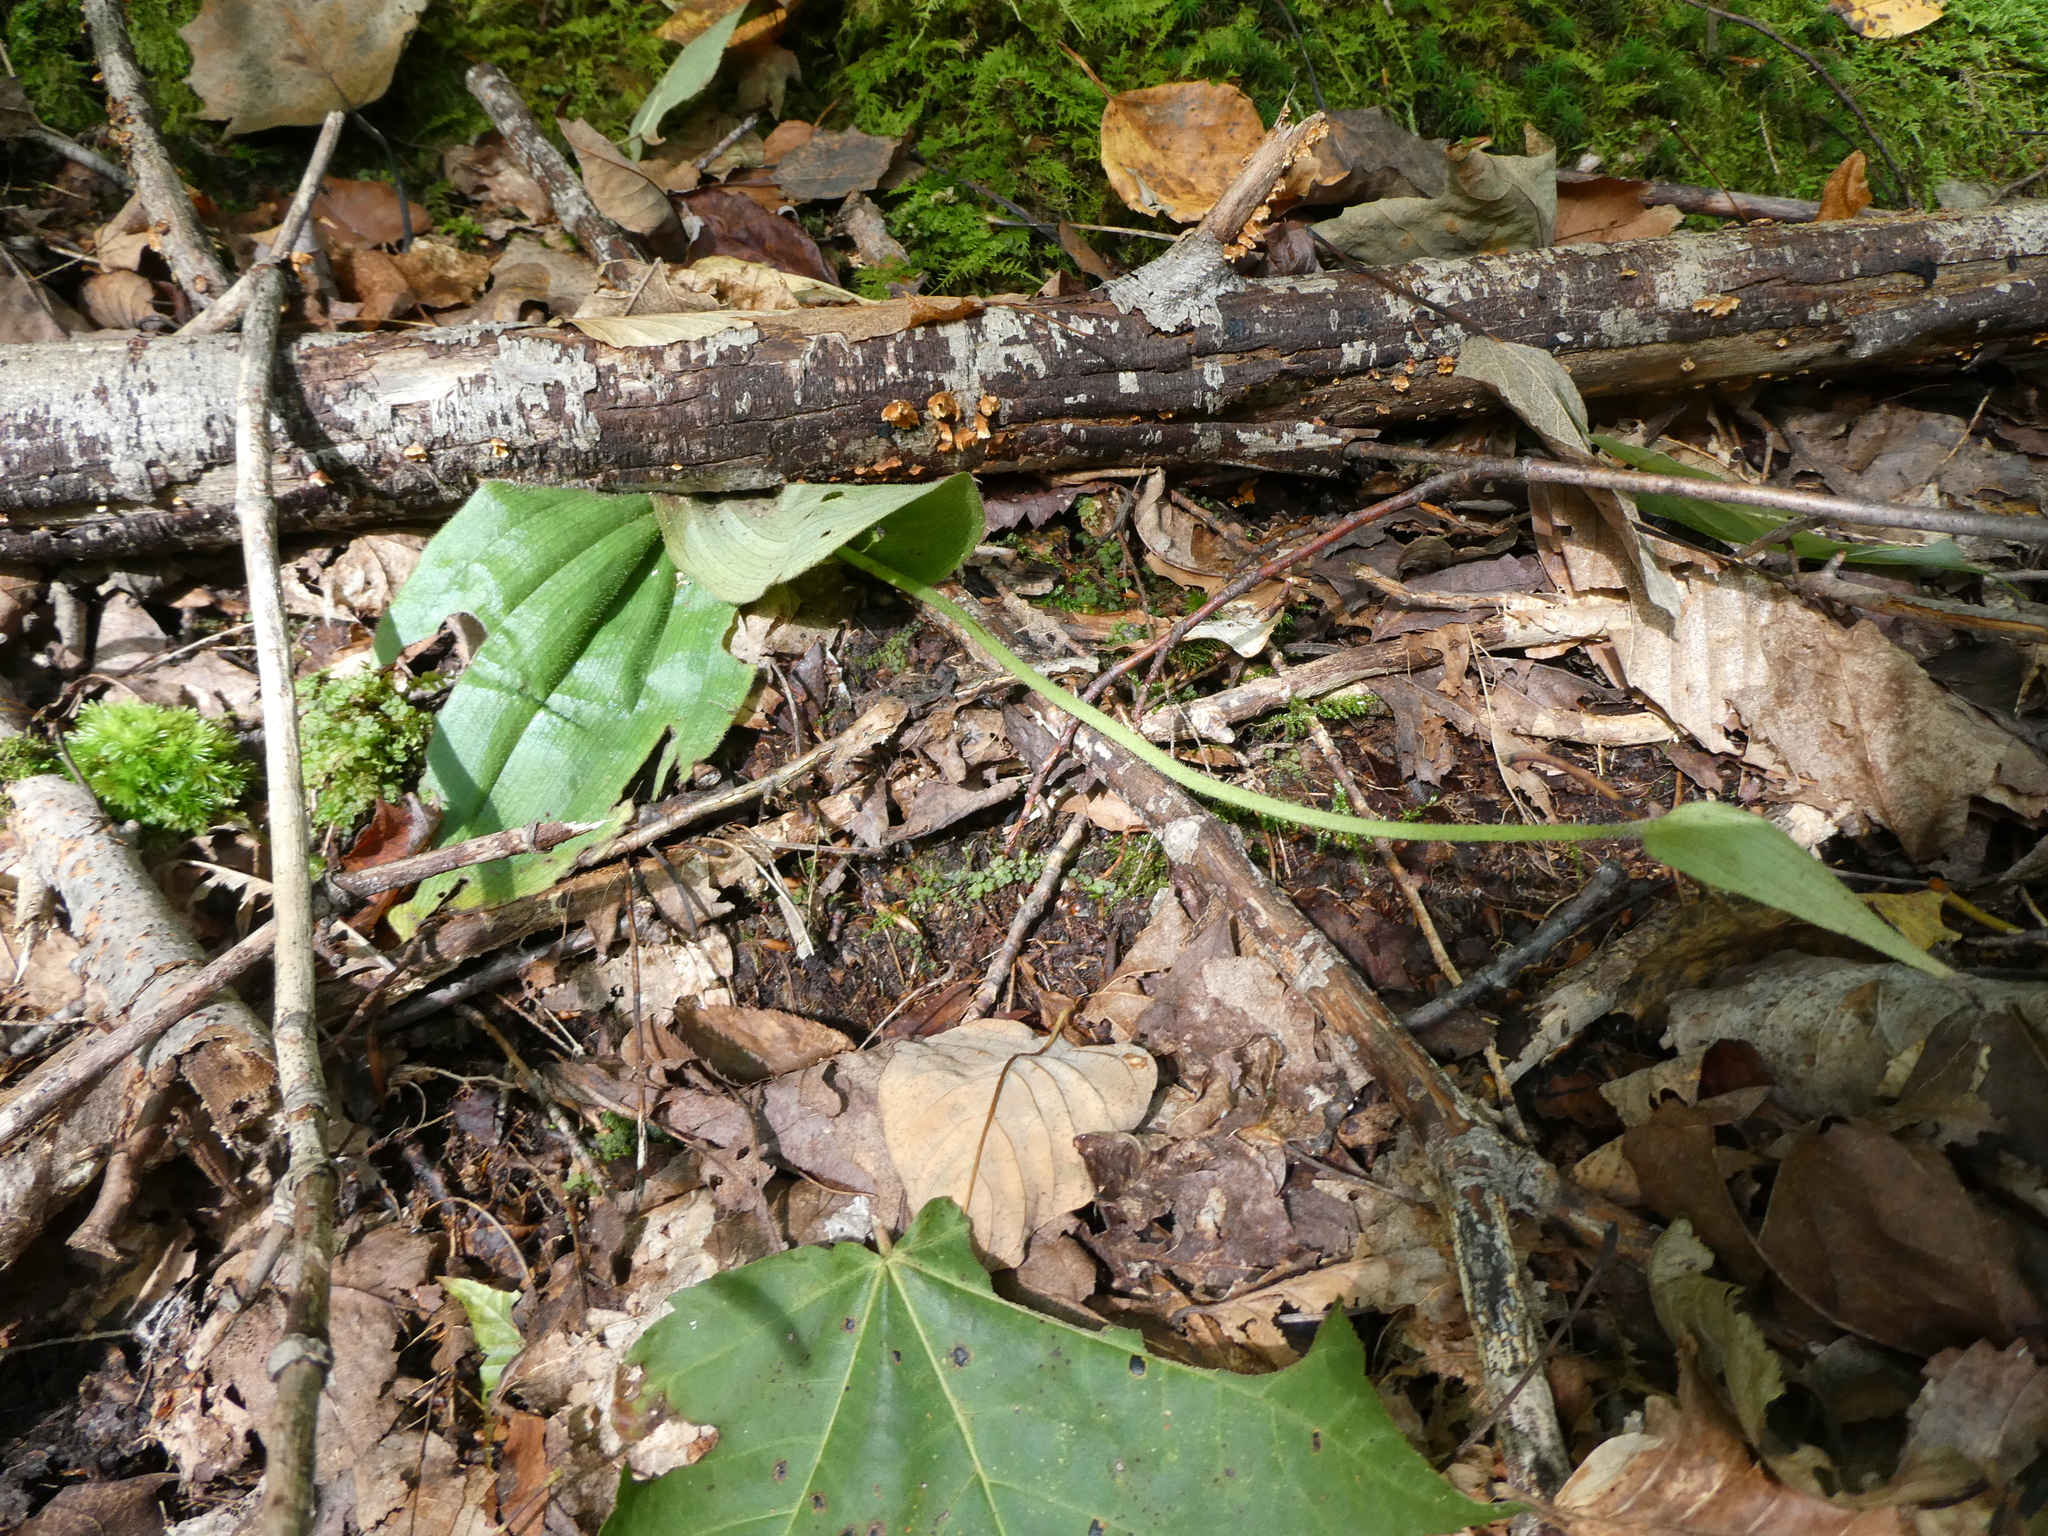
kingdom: Plantae
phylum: Tracheophyta
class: Liliopsida
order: Asparagales
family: Orchidaceae
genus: Cypripedium
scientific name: Cypripedium acaule
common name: Pink lady's-slipper
